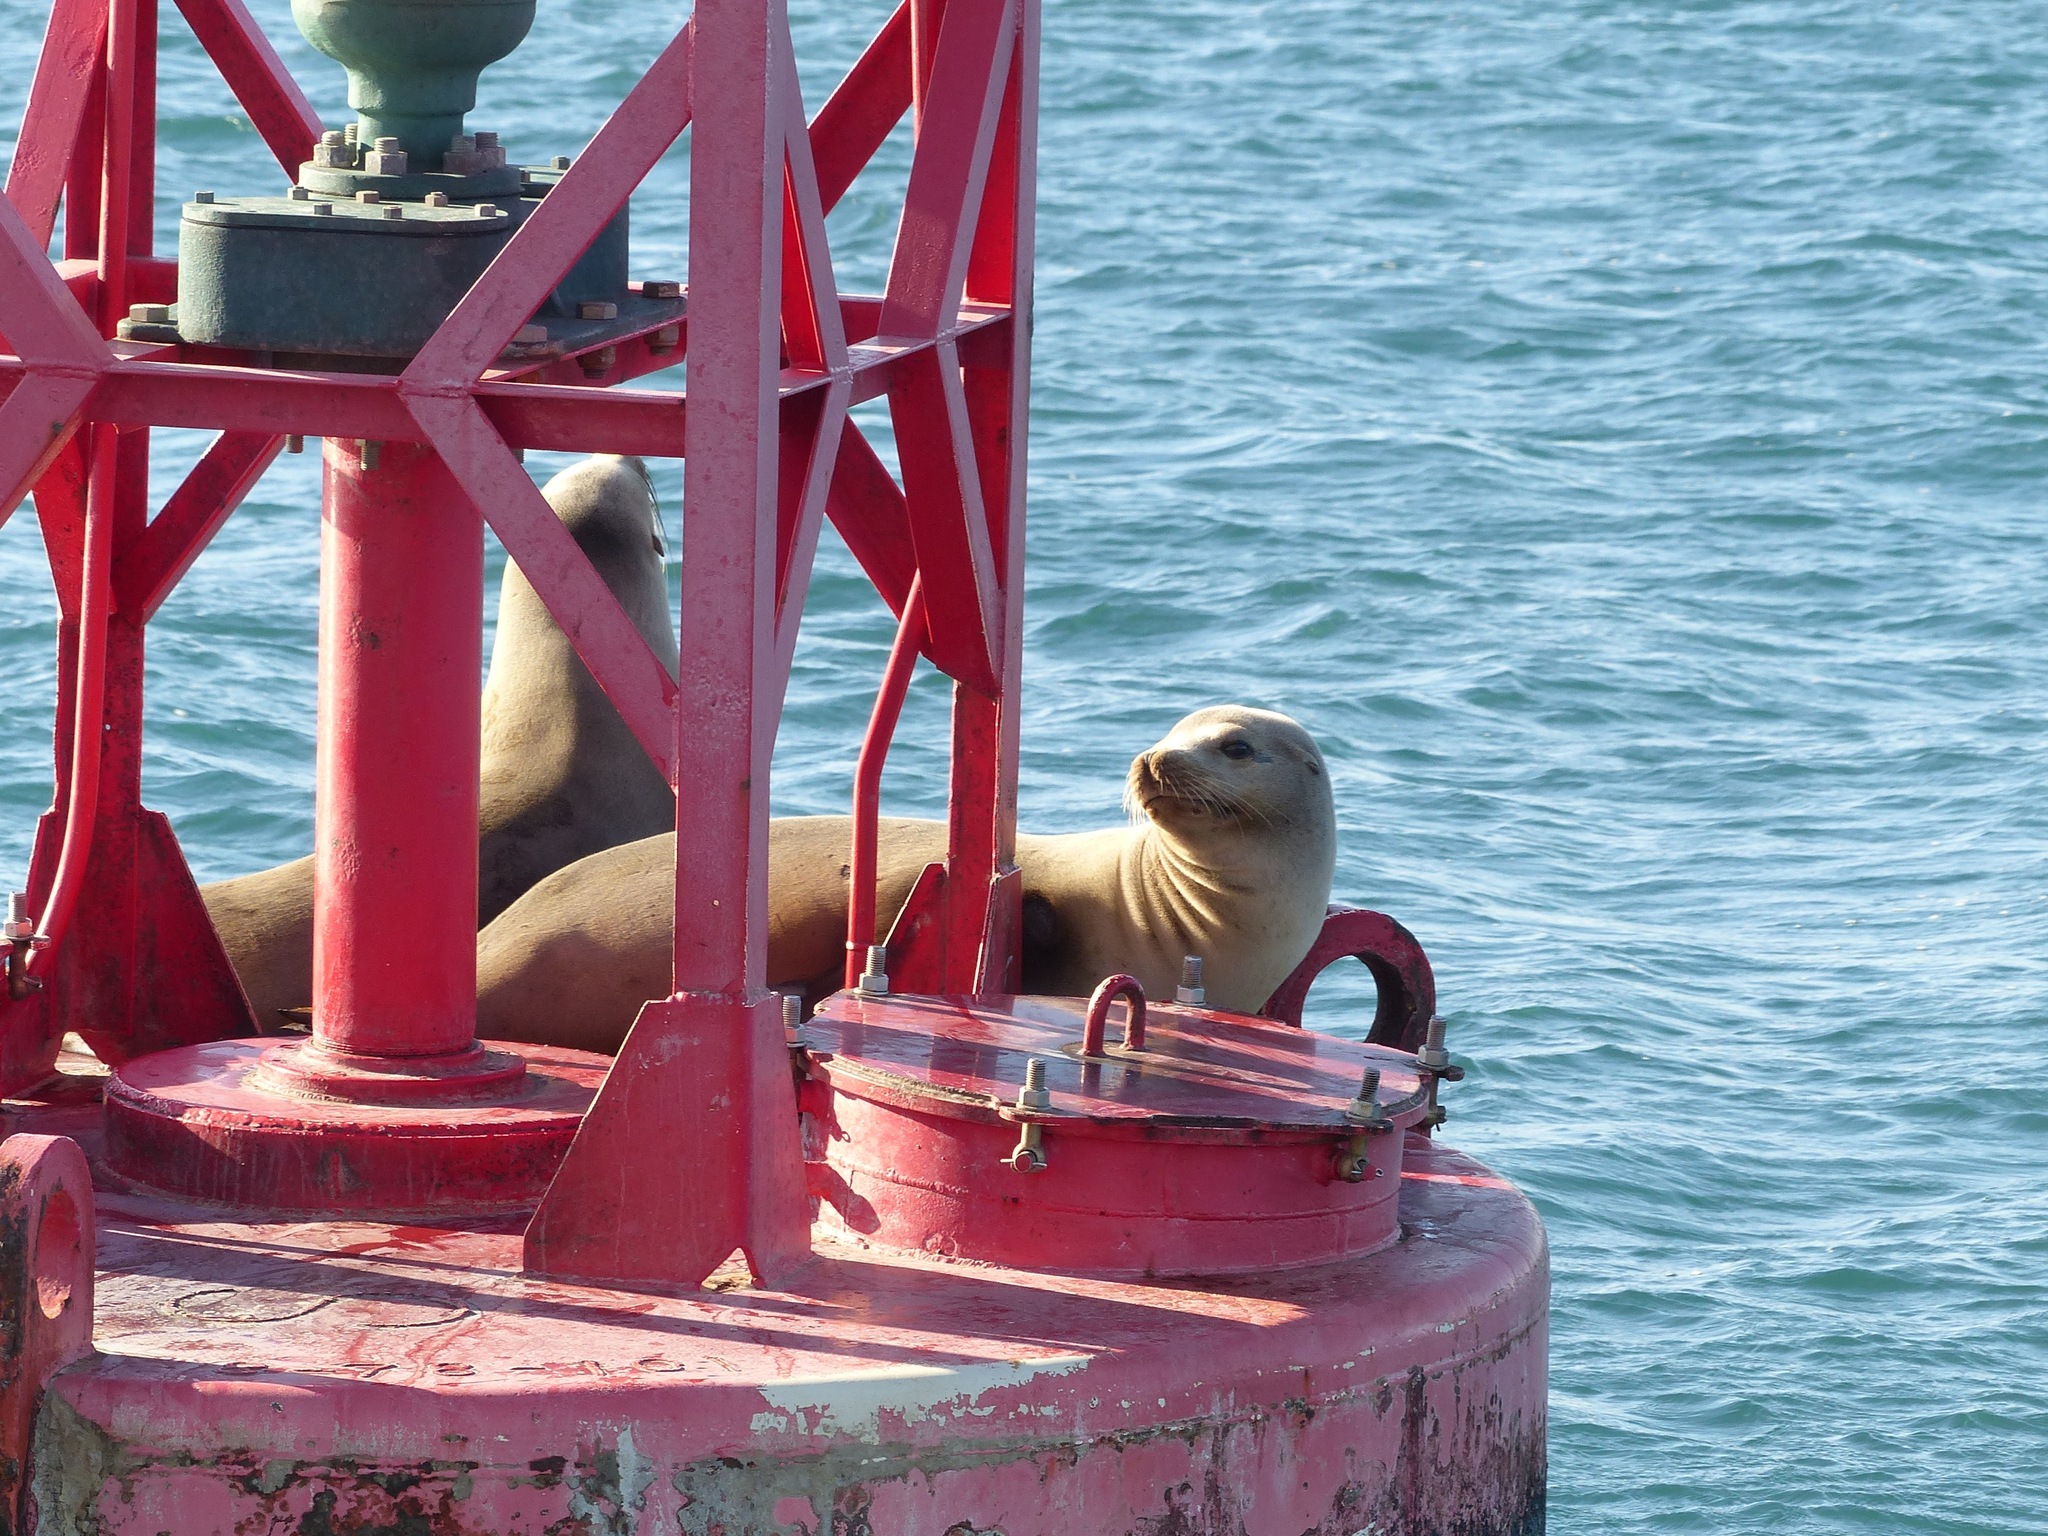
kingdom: Animalia
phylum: Chordata
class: Mammalia
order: Carnivora
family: Otariidae
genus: Zalophus
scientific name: Zalophus californianus
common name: California sea lion
